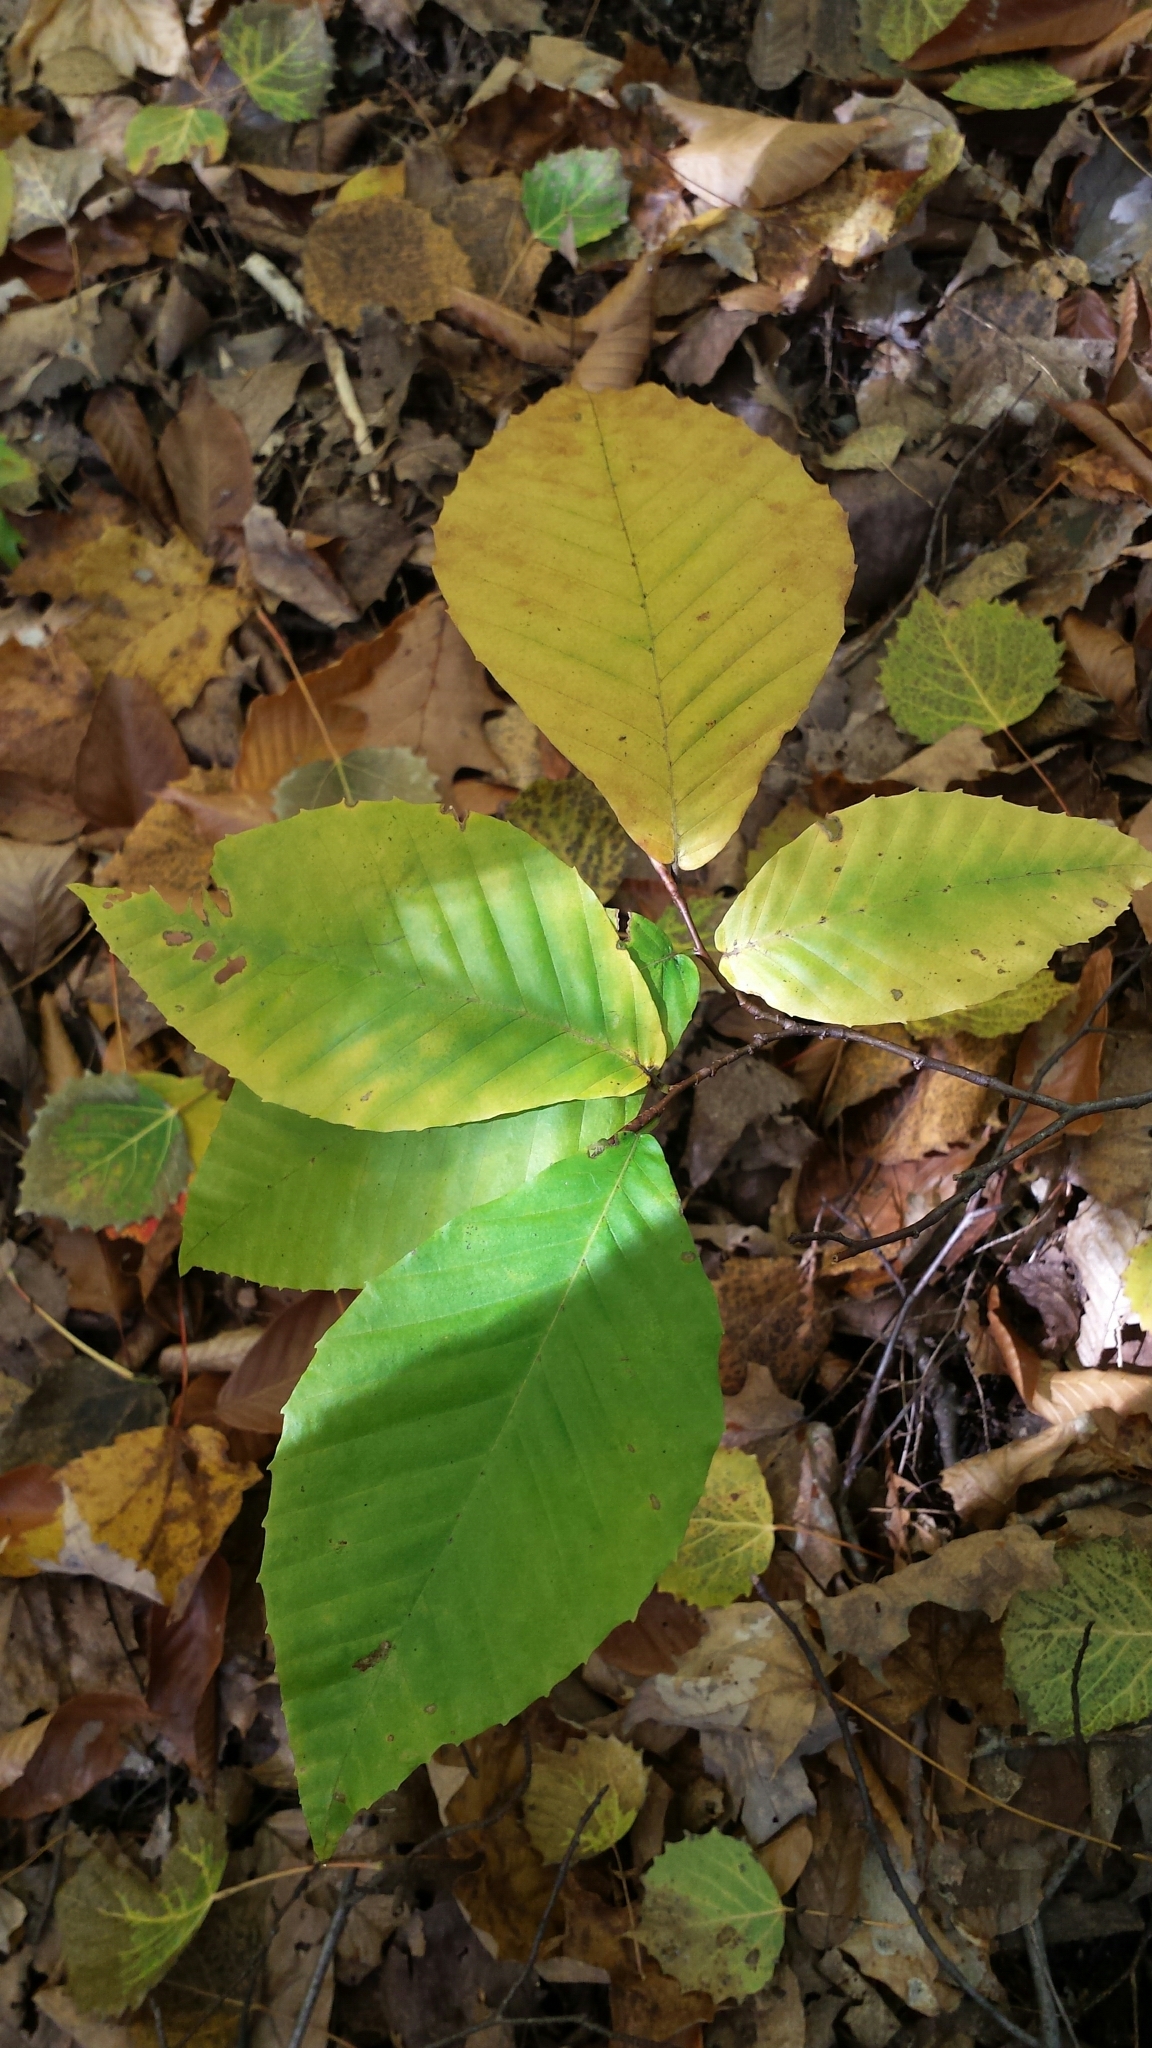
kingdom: Plantae
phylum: Tracheophyta
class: Magnoliopsida
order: Fagales
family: Fagaceae
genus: Fagus
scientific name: Fagus grandifolia
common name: American beech
